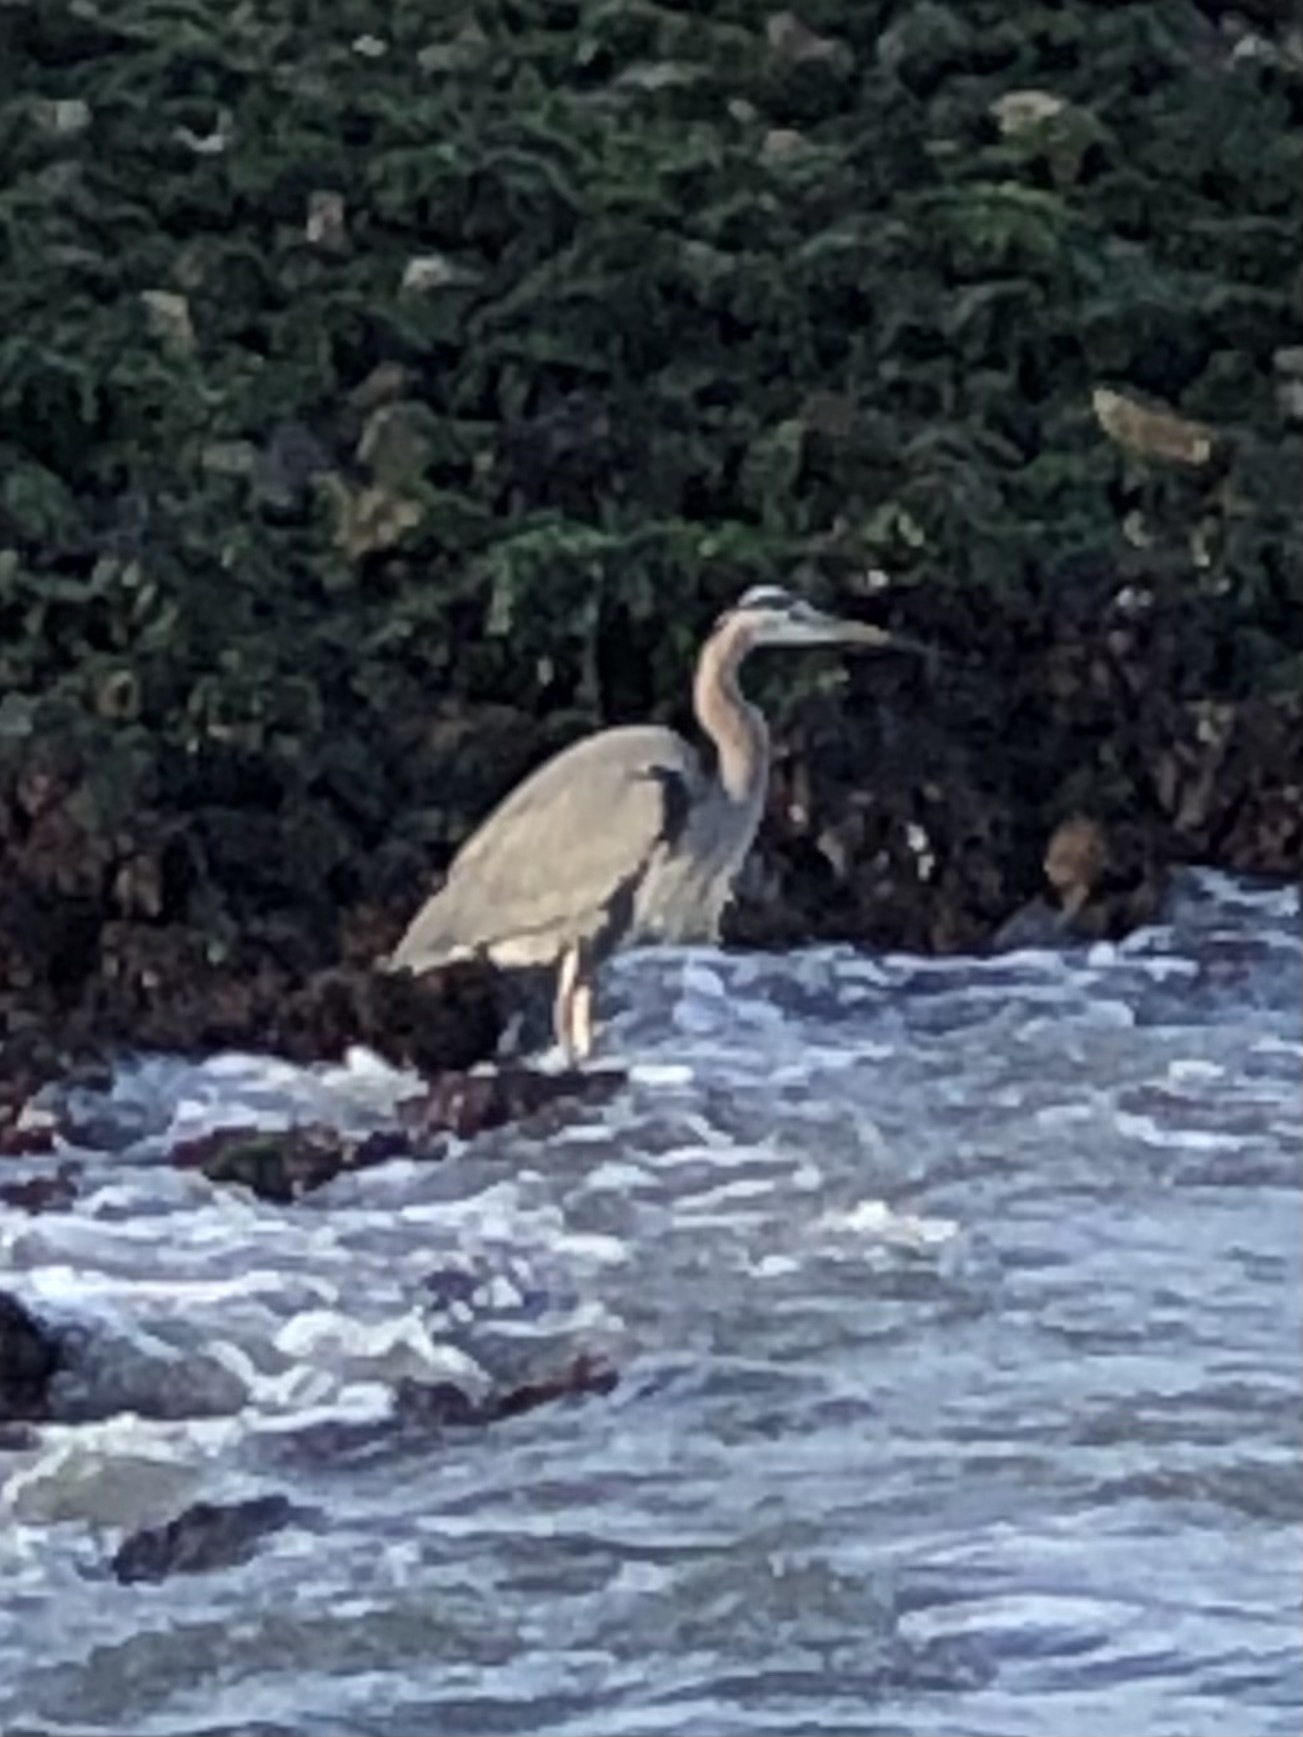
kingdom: Animalia
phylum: Chordata
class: Aves
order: Pelecaniformes
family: Ardeidae
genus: Ardea
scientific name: Ardea herodias
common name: Great blue heron
